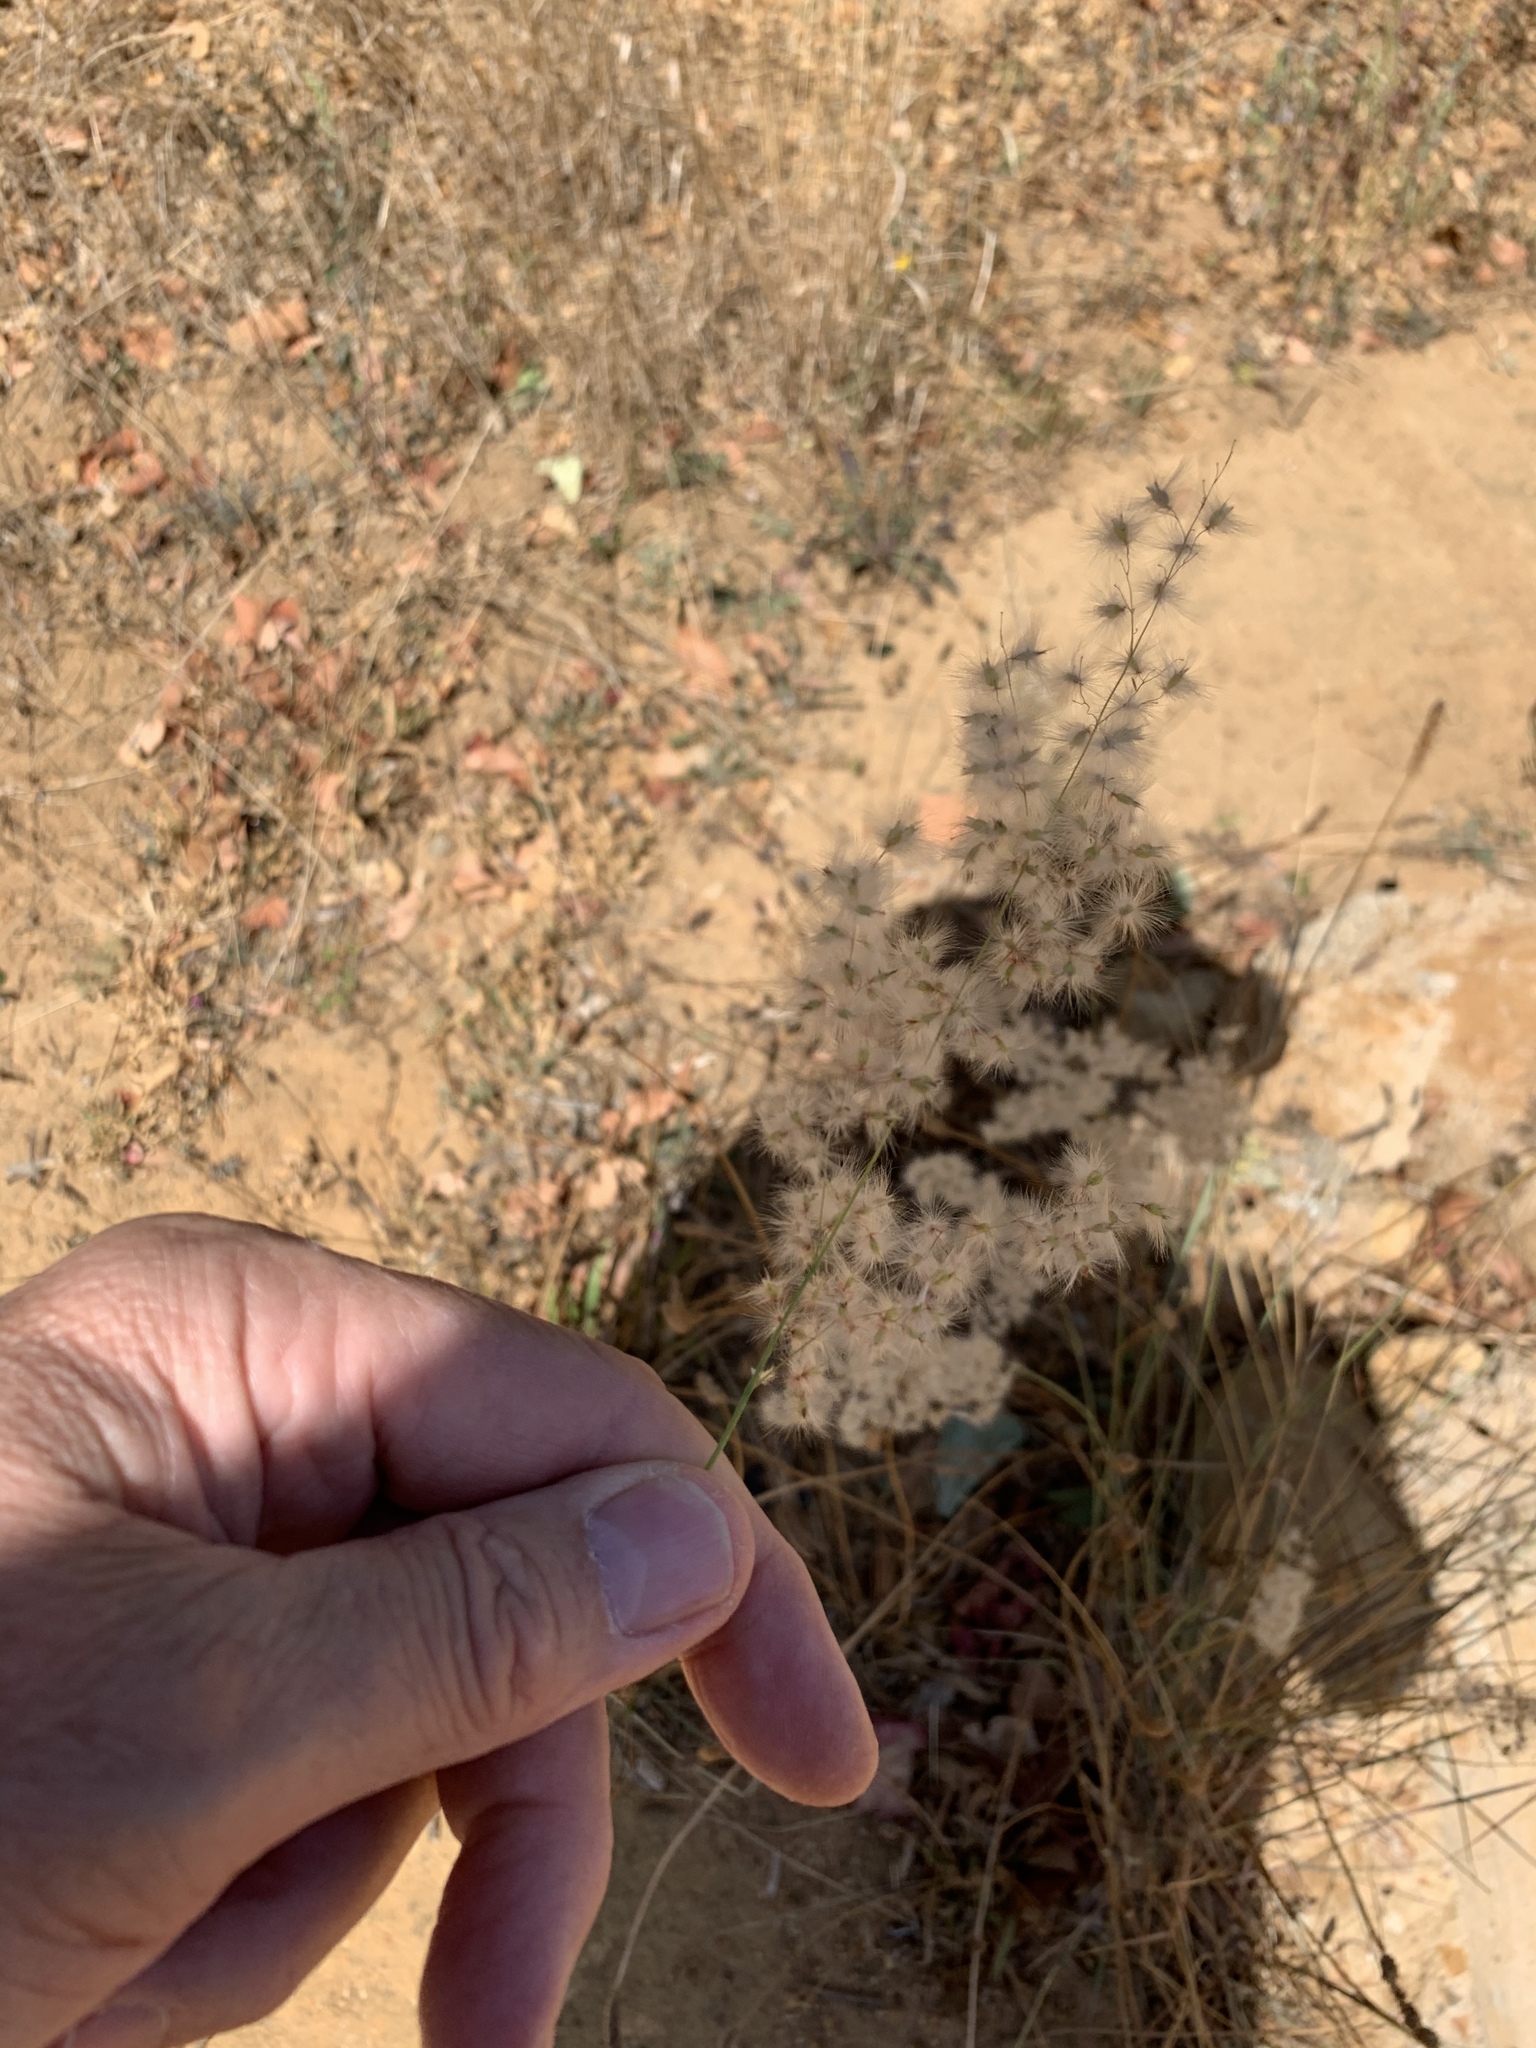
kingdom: Plantae
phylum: Tracheophyta
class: Liliopsida
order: Poales
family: Poaceae
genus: Melinis
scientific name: Melinis repens
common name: Rose natal grass
